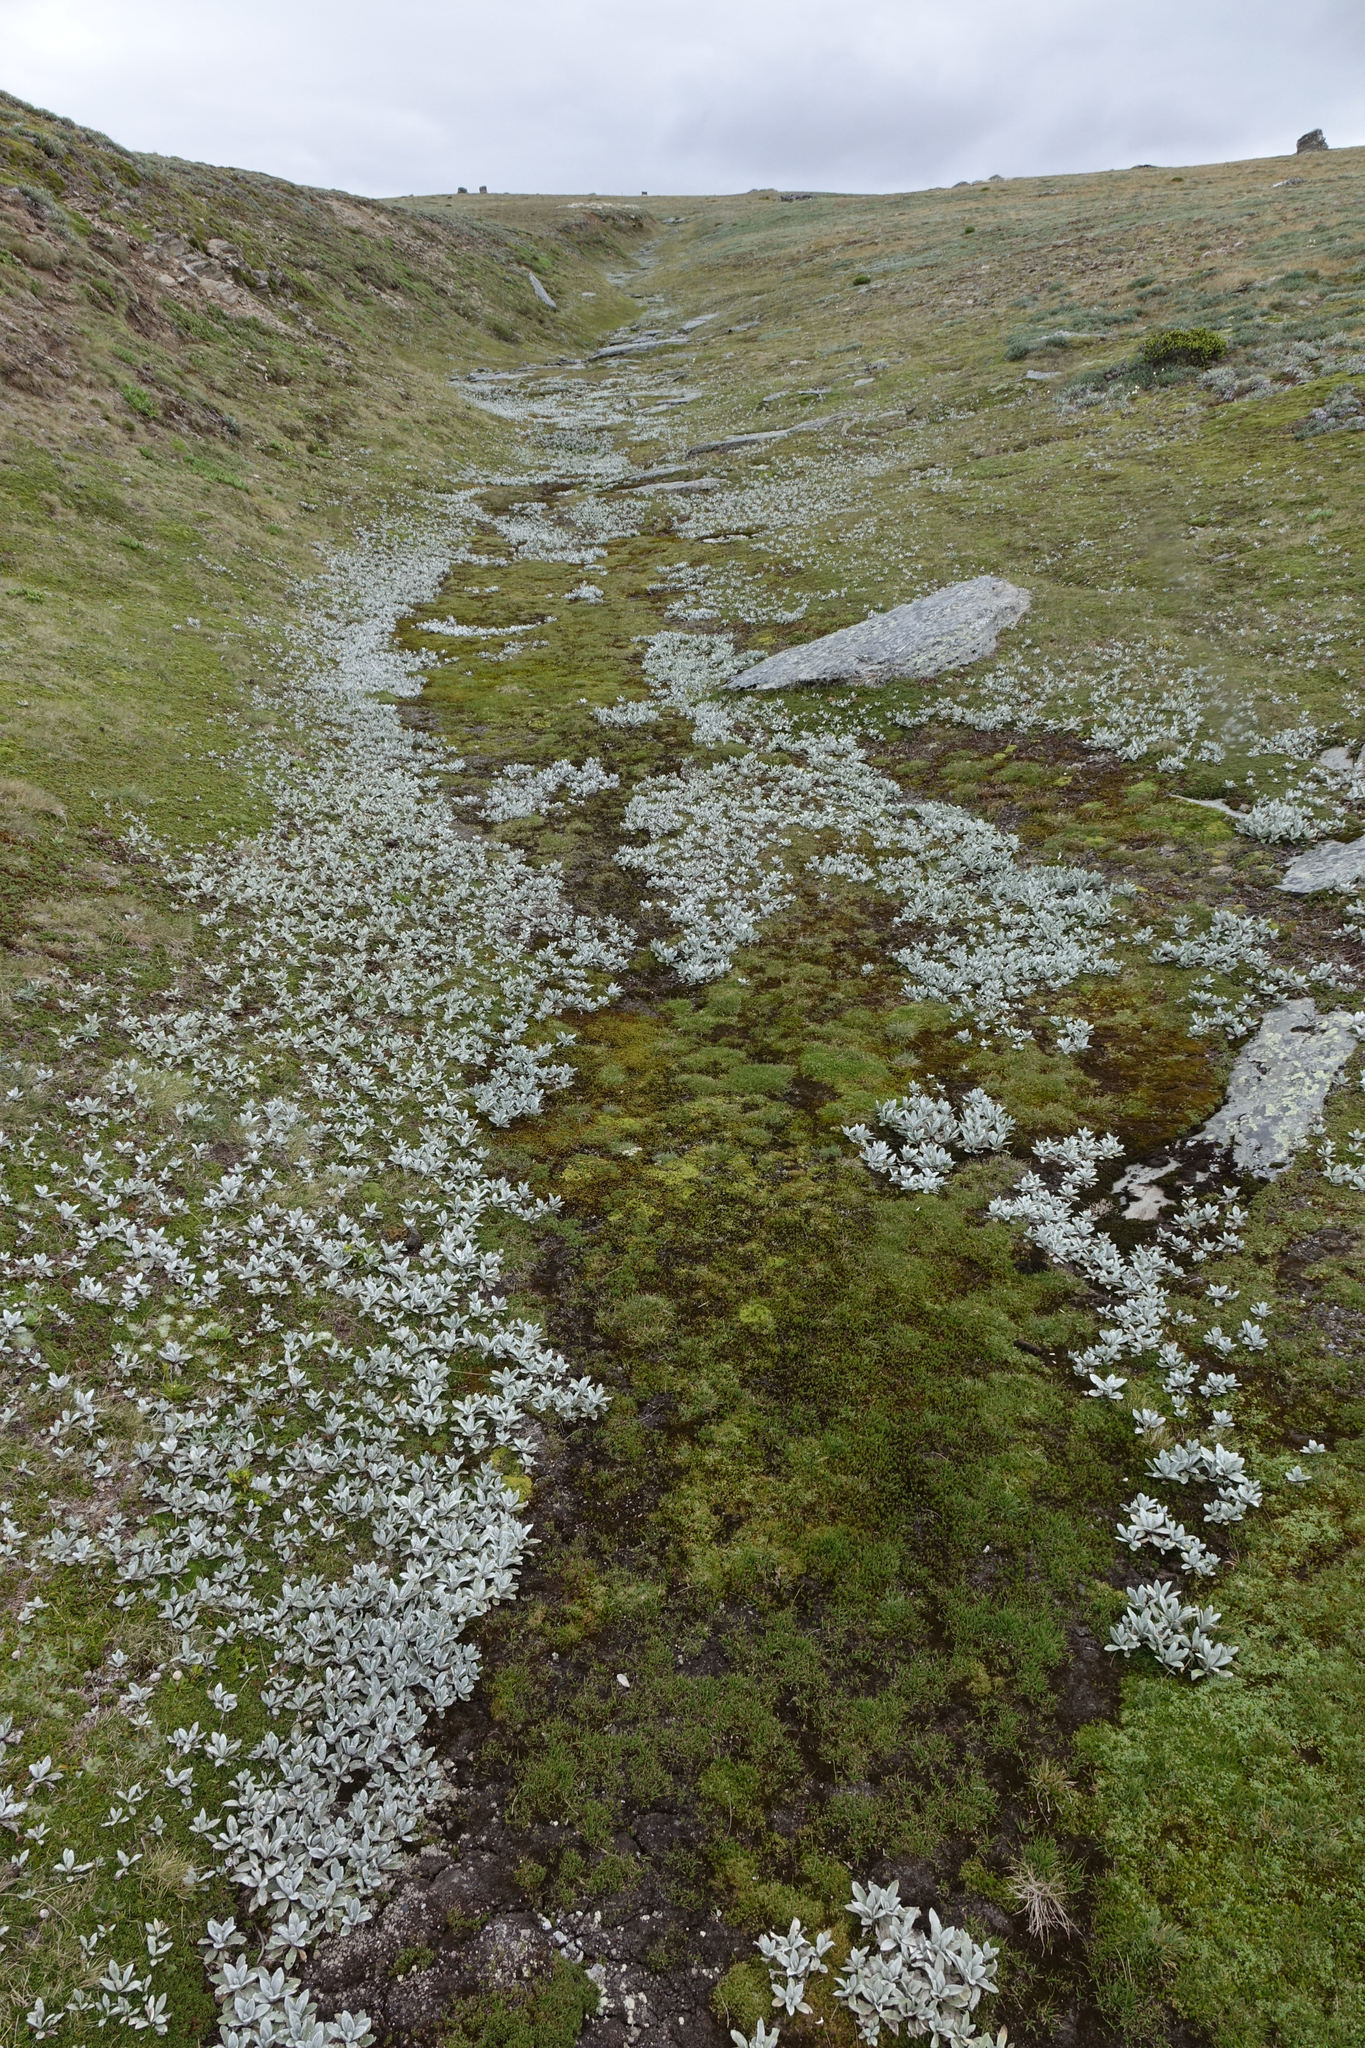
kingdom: Plantae
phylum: Tracheophyta
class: Magnoliopsida
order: Asterales
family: Asteraceae
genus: Celmisia
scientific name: Celmisia haastii
